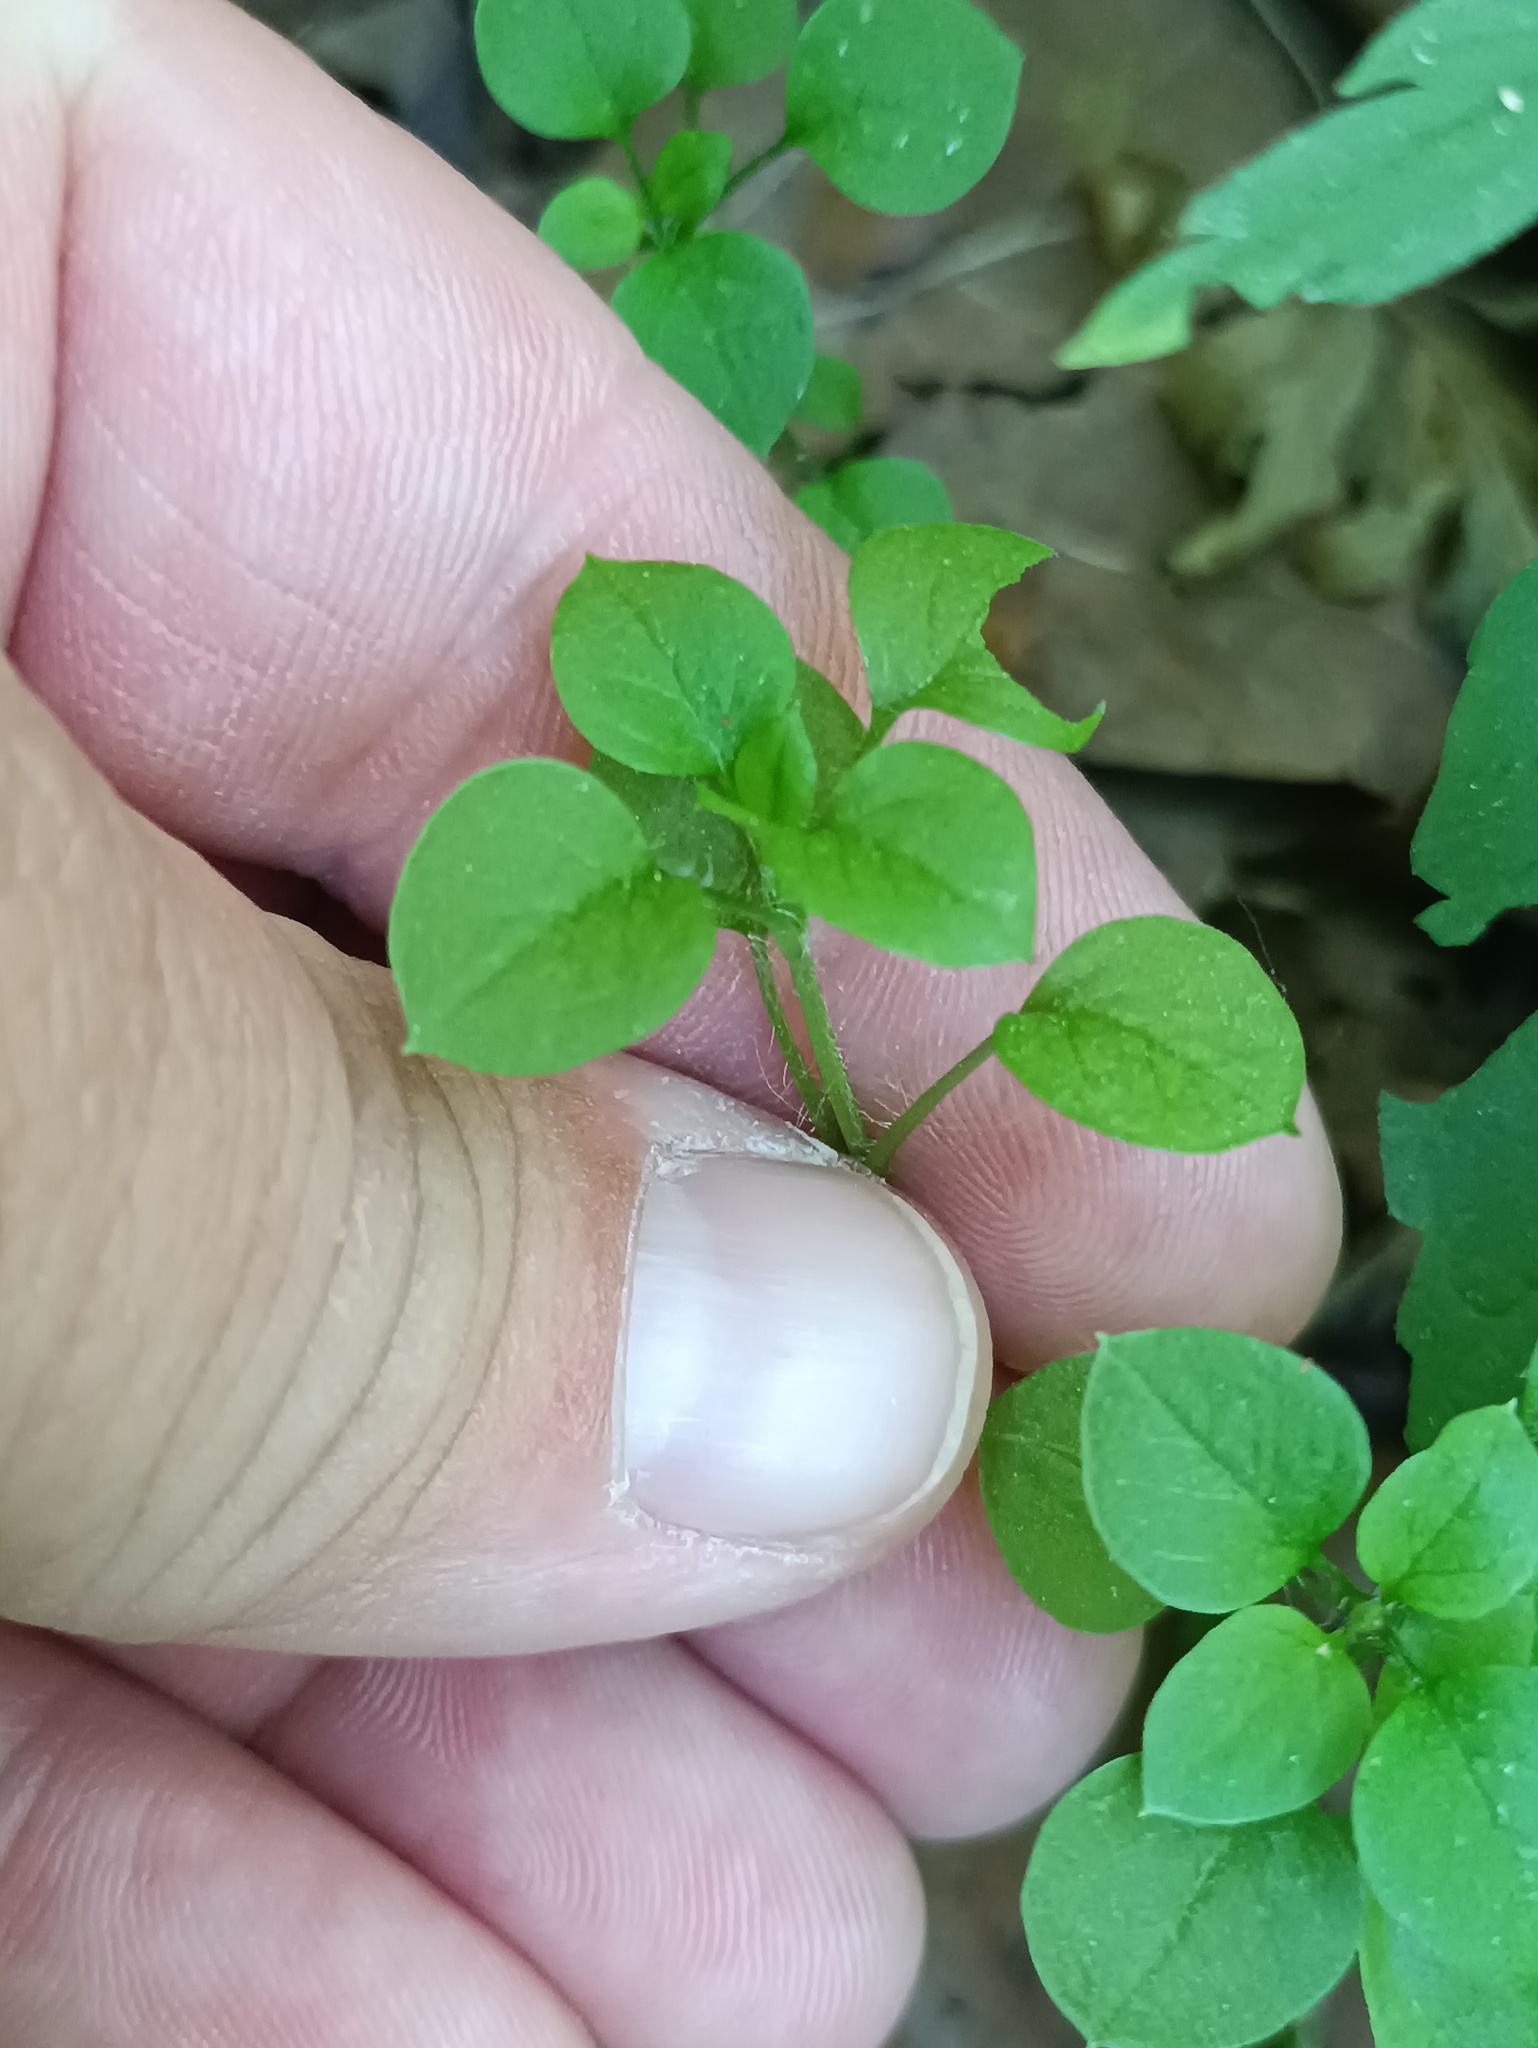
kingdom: Plantae
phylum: Tracheophyta
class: Magnoliopsida
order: Caryophyllales
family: Caryophyllaceae
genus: Stellaria
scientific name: Stellaria media
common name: Common chickweed
